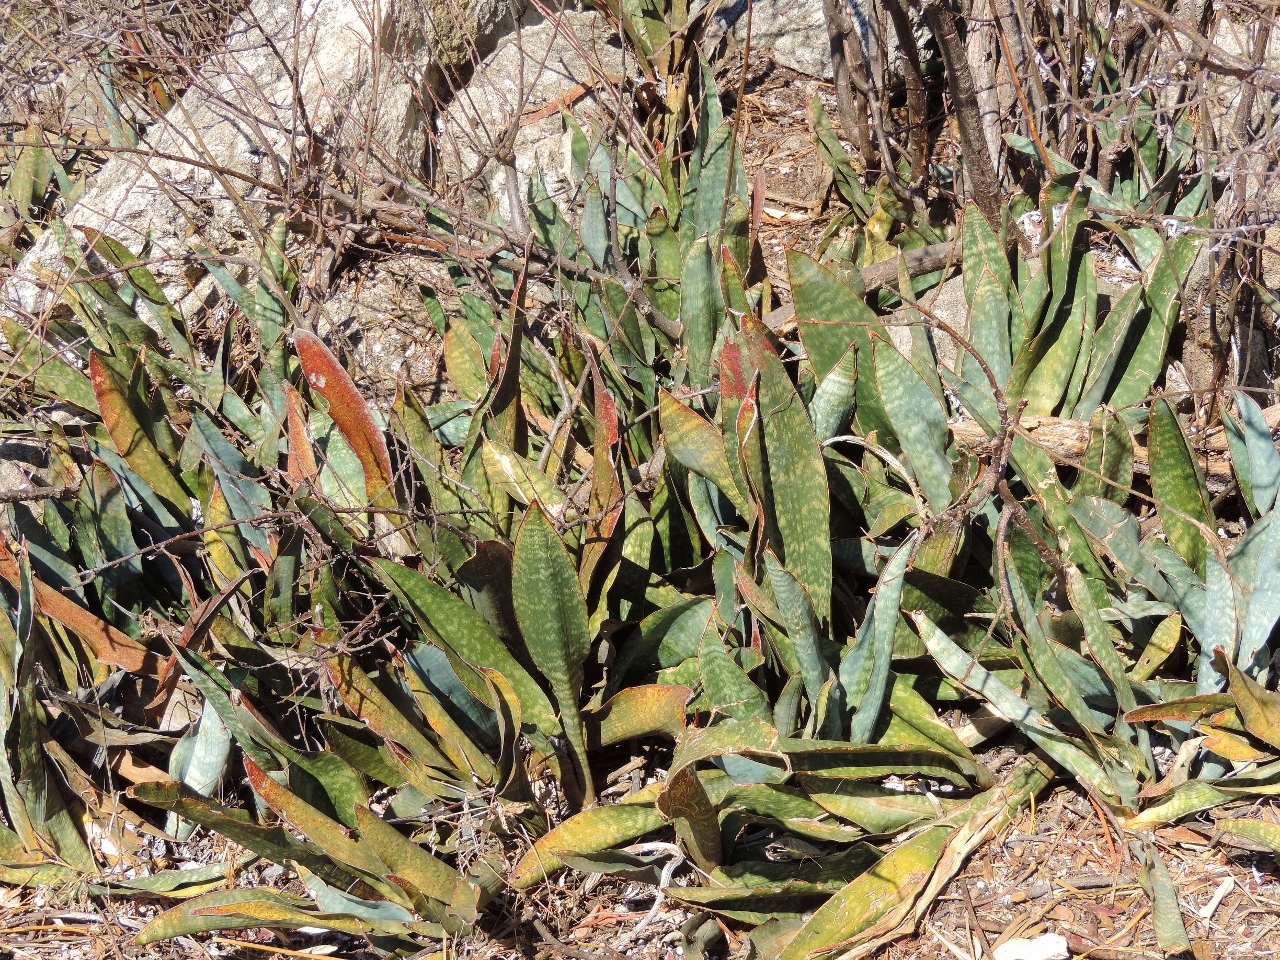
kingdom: Plantae
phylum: Tracheophyta
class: Liliopsida
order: Asparagales
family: Asparagaceae
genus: Dracaena
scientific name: Dracaena hyacinthoides
